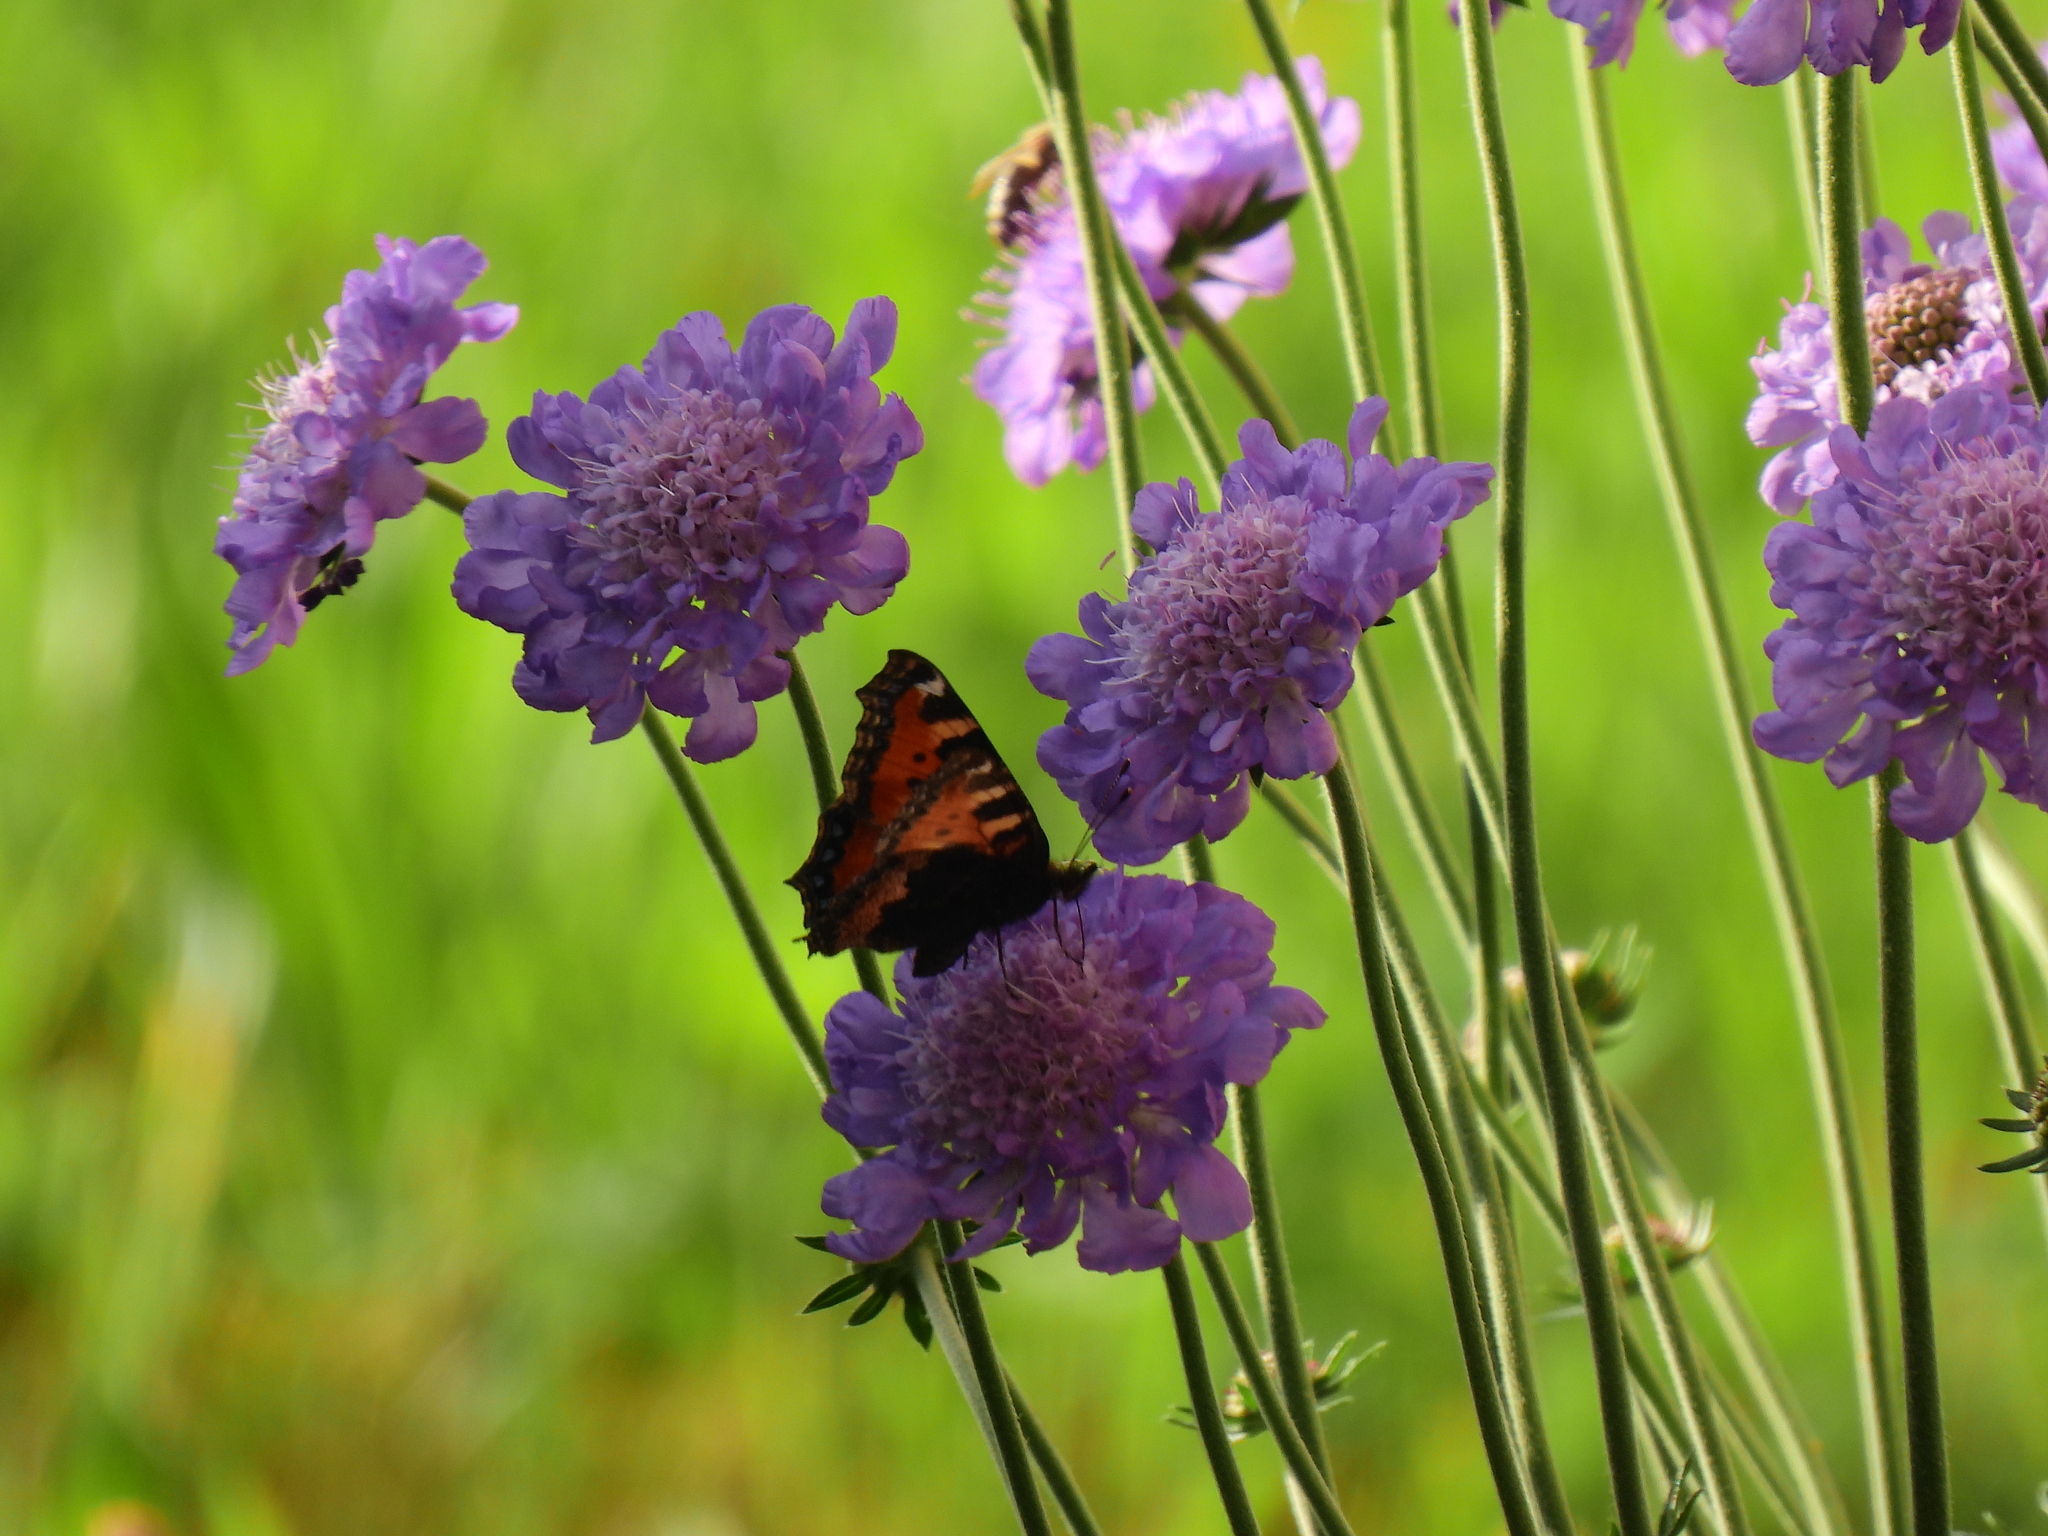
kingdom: Animalia
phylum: Arthropoda
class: Insecta
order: Lepidoptera
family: Nymphalidae
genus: Aglais
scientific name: Aglais urticae
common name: Small tortoiseshell
